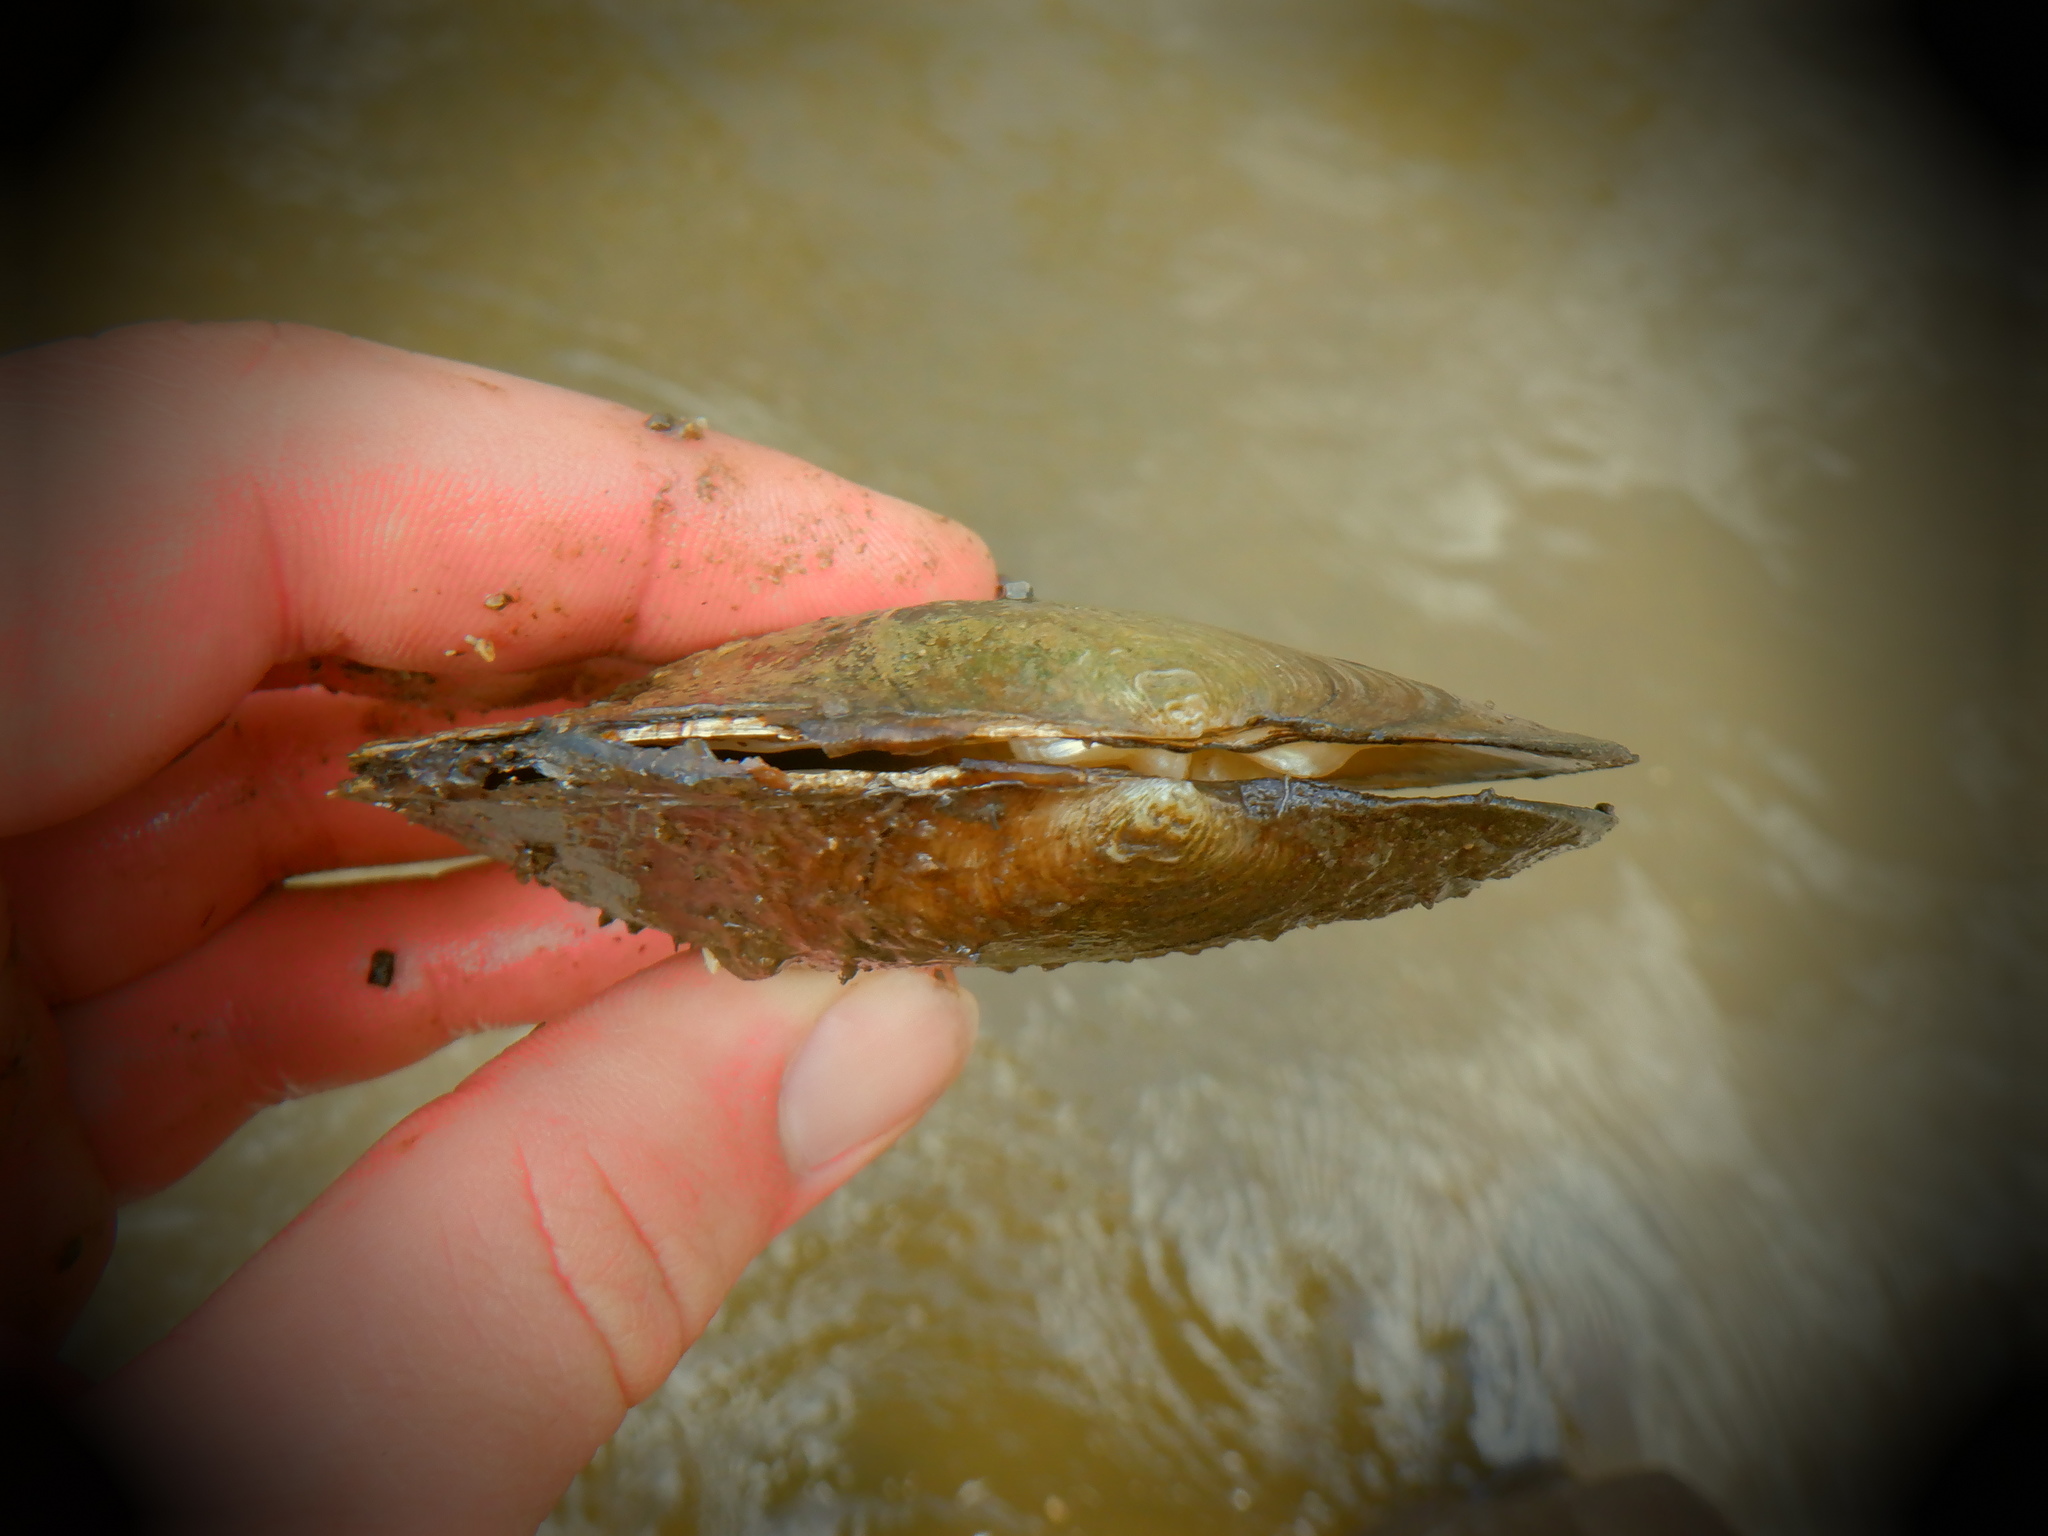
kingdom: Animalia
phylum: Mollusca
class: Bivalvia
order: Unionida
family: Unionidae
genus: Lasmigona
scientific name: Lasmigona complanata
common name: White heelsplitter
